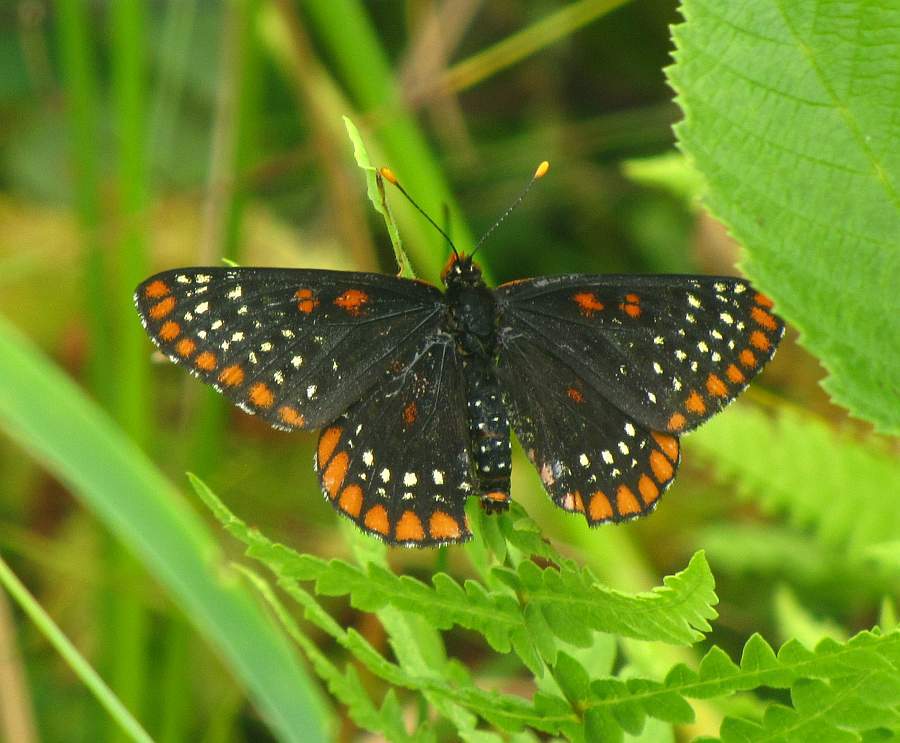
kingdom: Animalia
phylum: Arthropoda
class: Insecta
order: Lepidoptera
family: Nymphalidae
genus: Euphydryas
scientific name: Euphydryas phaeton
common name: Baltimore checkerspot
